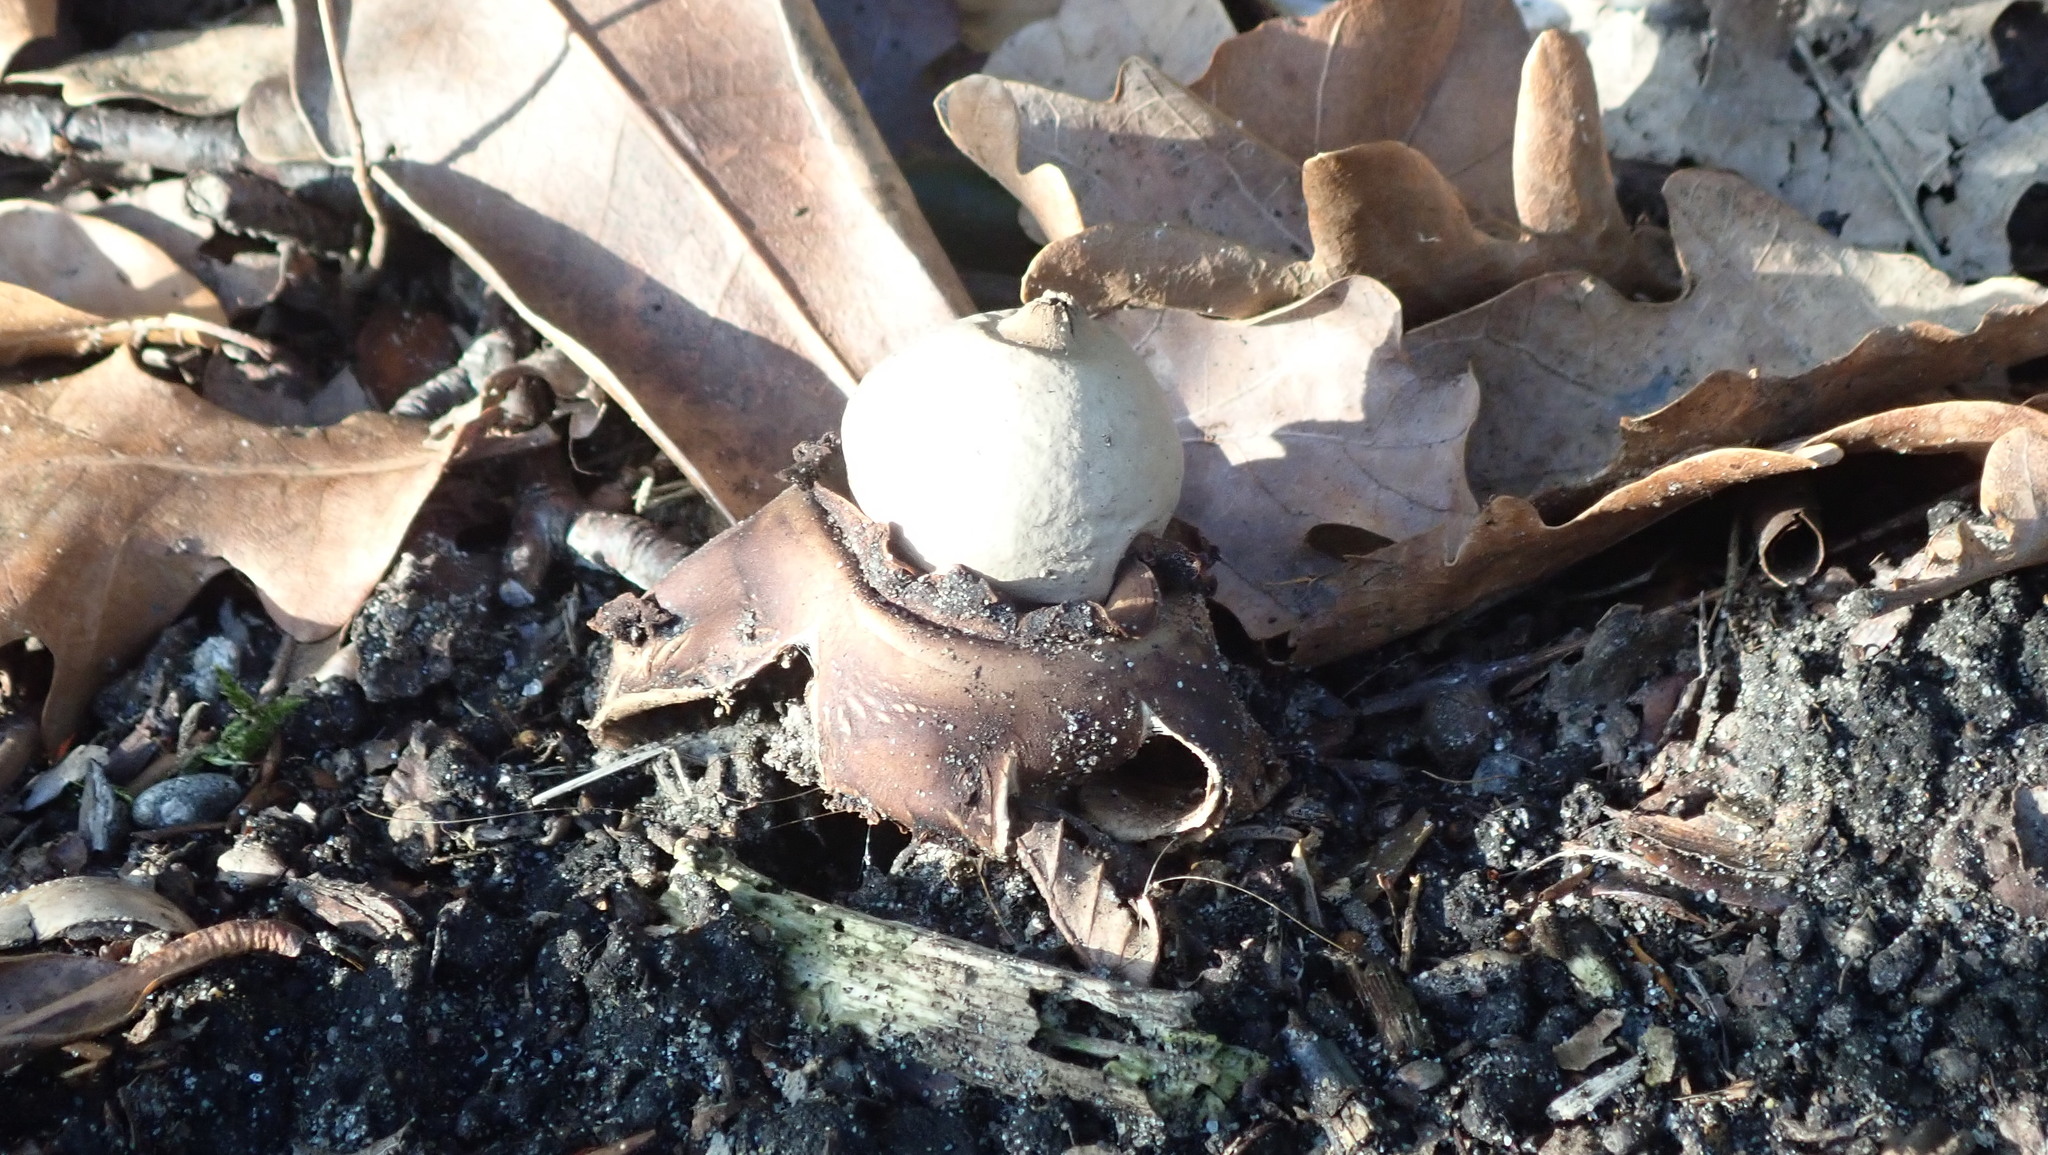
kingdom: Fungi
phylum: Basidiomycota
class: Agaricomycetes
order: Geastrales
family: Geastraceae
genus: Geastrum
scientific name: Geastrum triplex
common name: Collared earthstar
